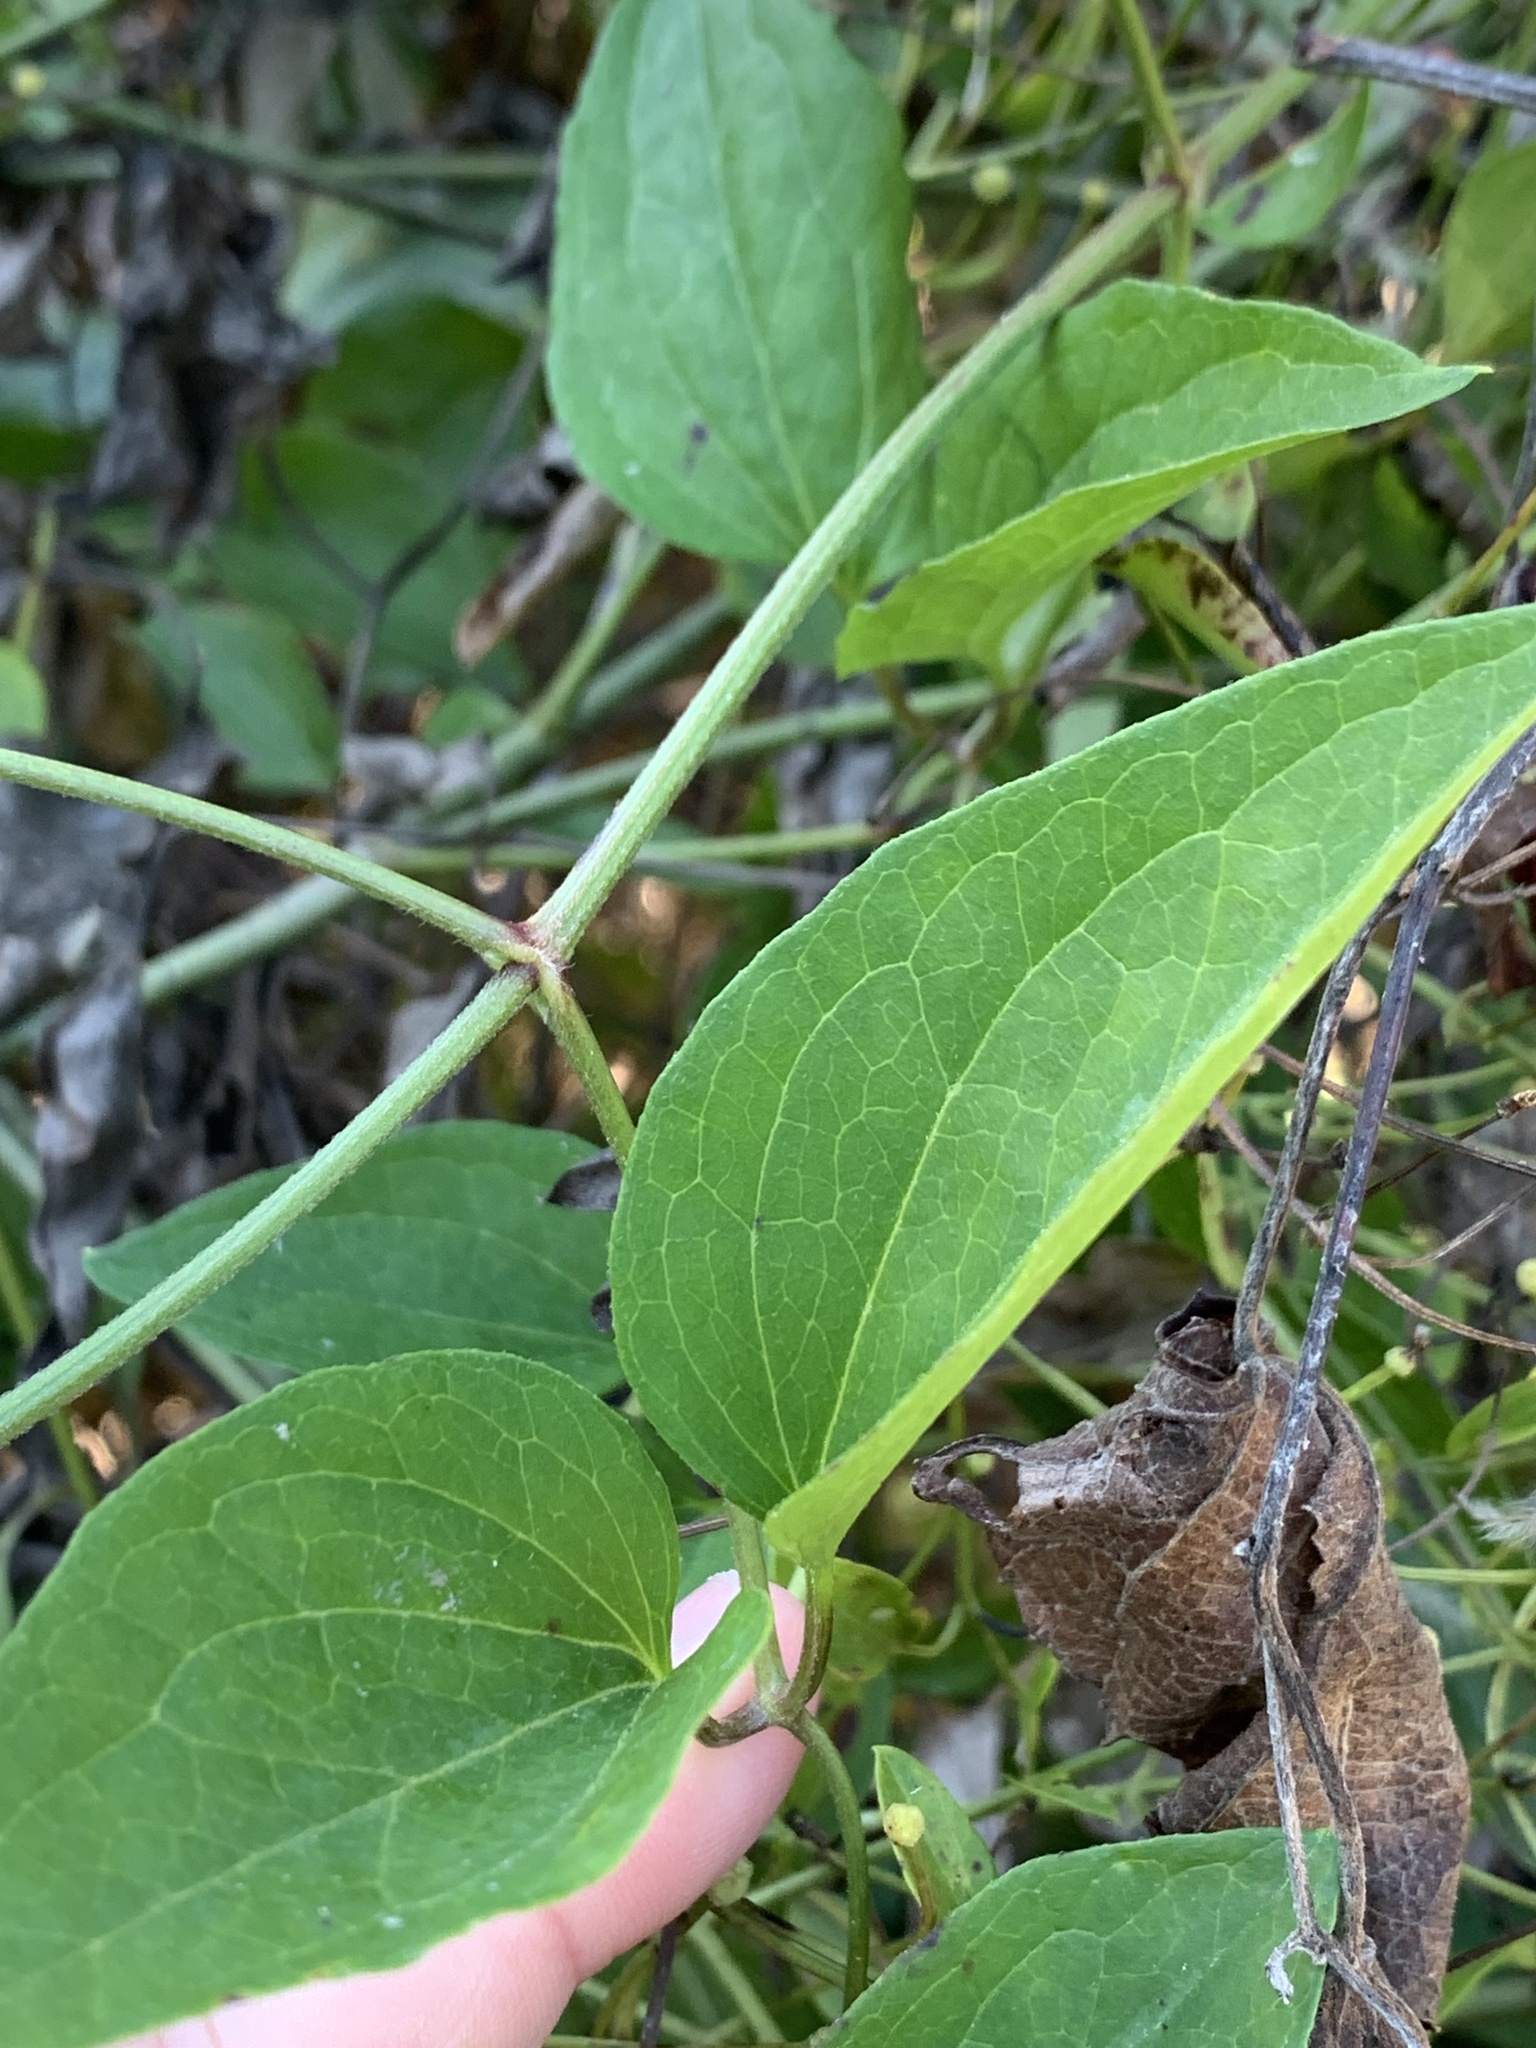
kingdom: Plantae
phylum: Tracheophyta
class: Magnoliopsida
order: Ranunculales
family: Ranunculaceae
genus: Clematis
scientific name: Clematis terniflora
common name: Sweet autumn clematis
